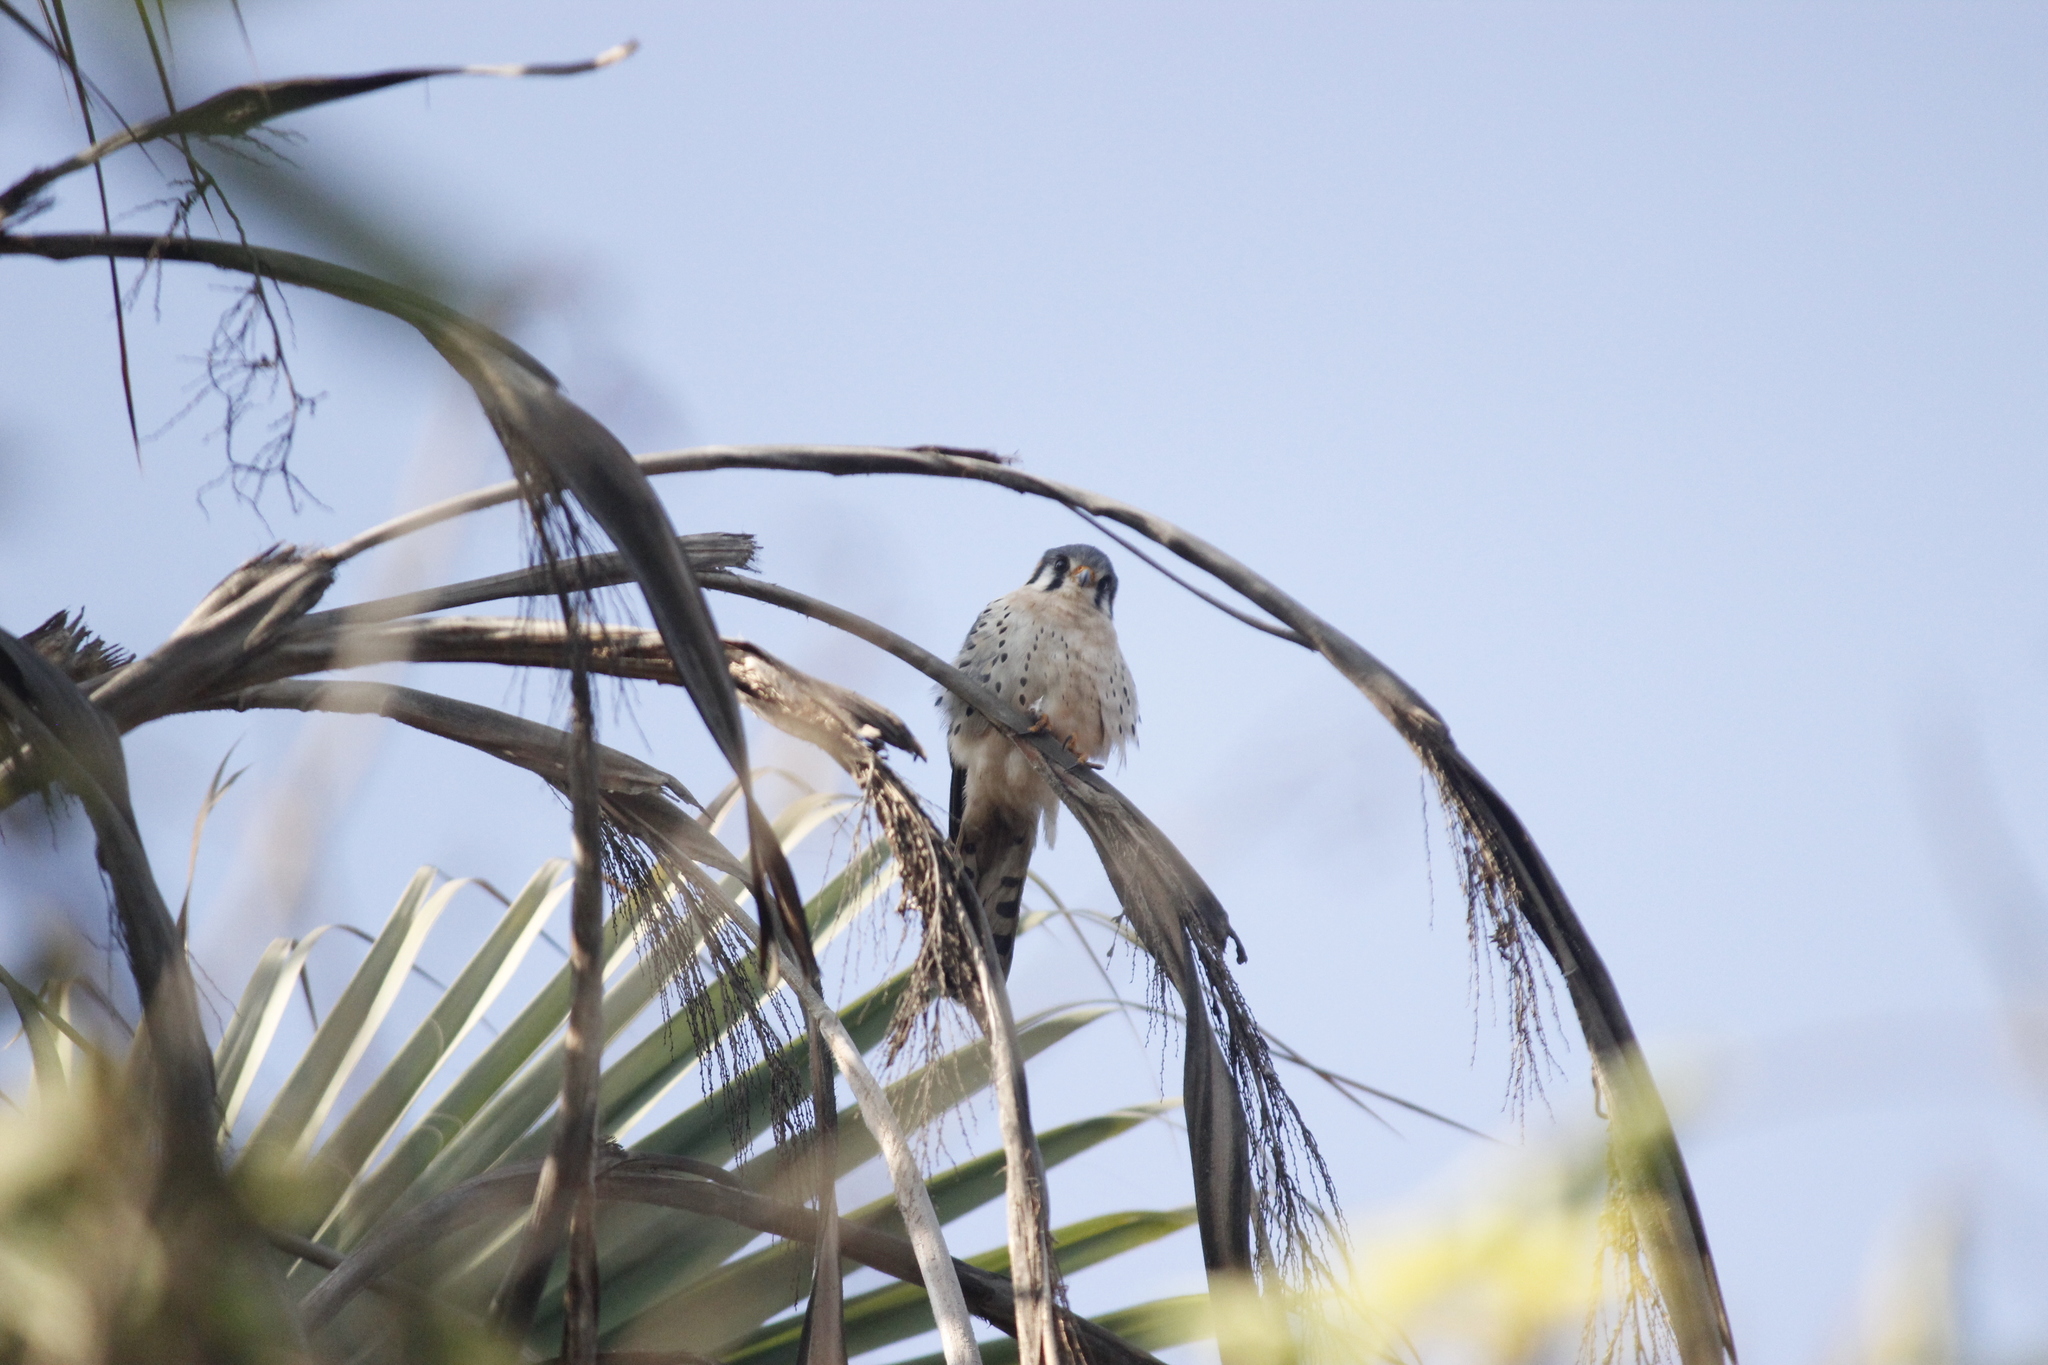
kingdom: Animalia
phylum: Chordata
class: Aves
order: Falconiformes
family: Falconidae
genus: Falco
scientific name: Falco sparverius
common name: American kestrel
